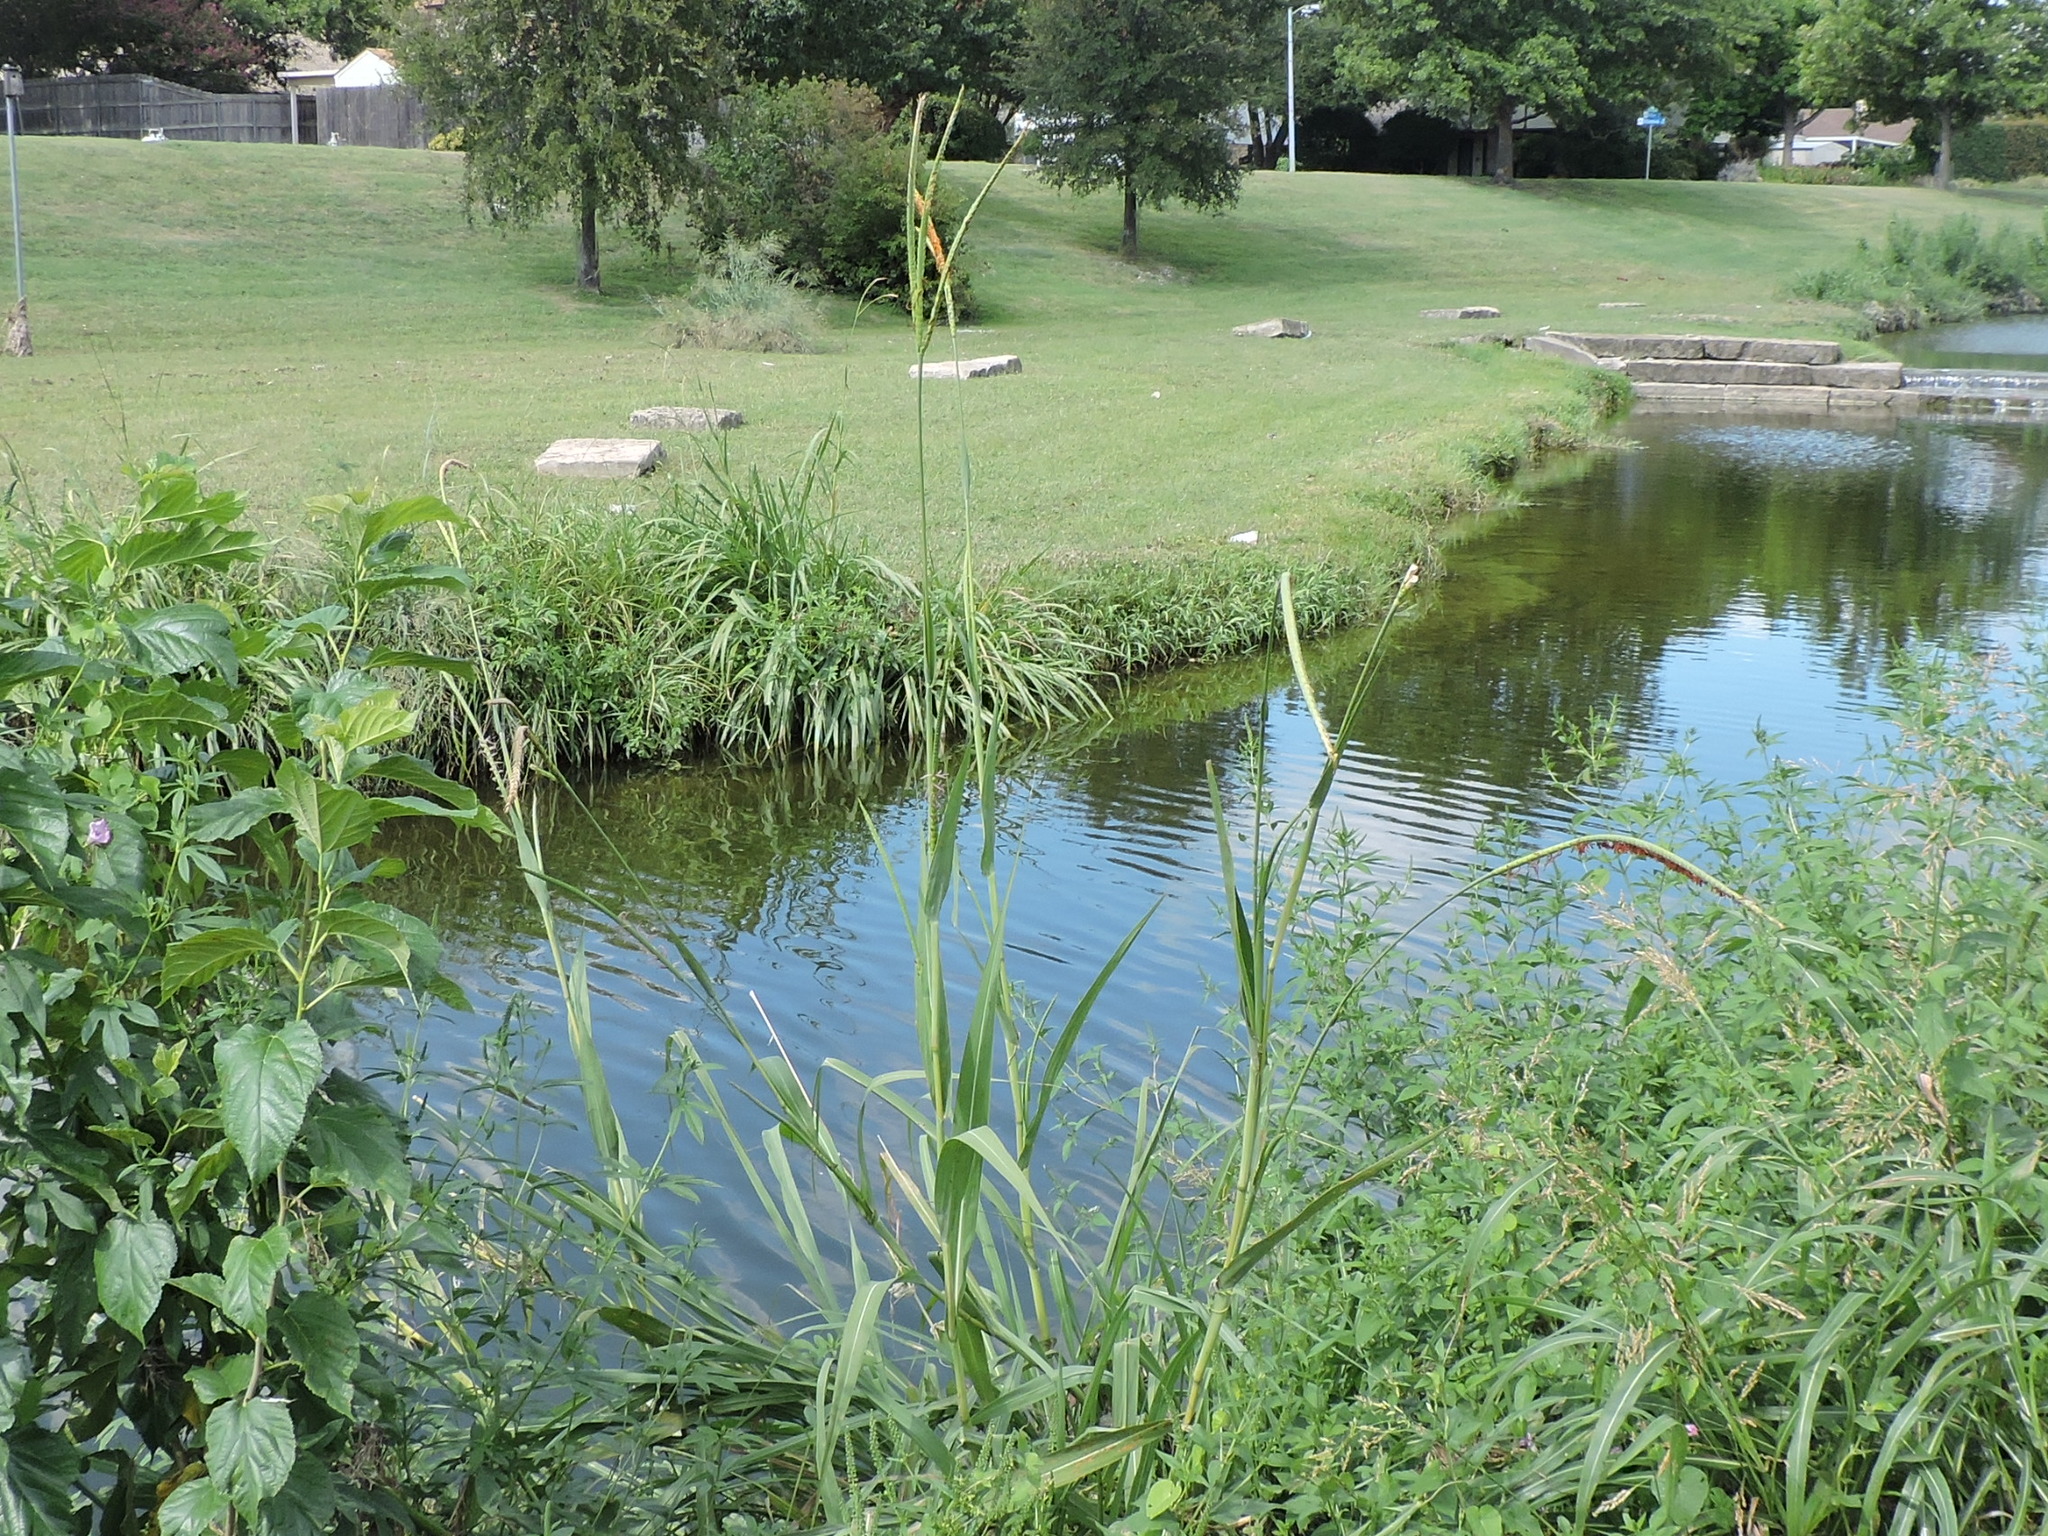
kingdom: Plantae
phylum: Tracheophyta
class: Liliopsida
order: Poales
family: Poaceae
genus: Tripsacum
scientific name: Tripsacum dactyloides
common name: Buffalo-grass
